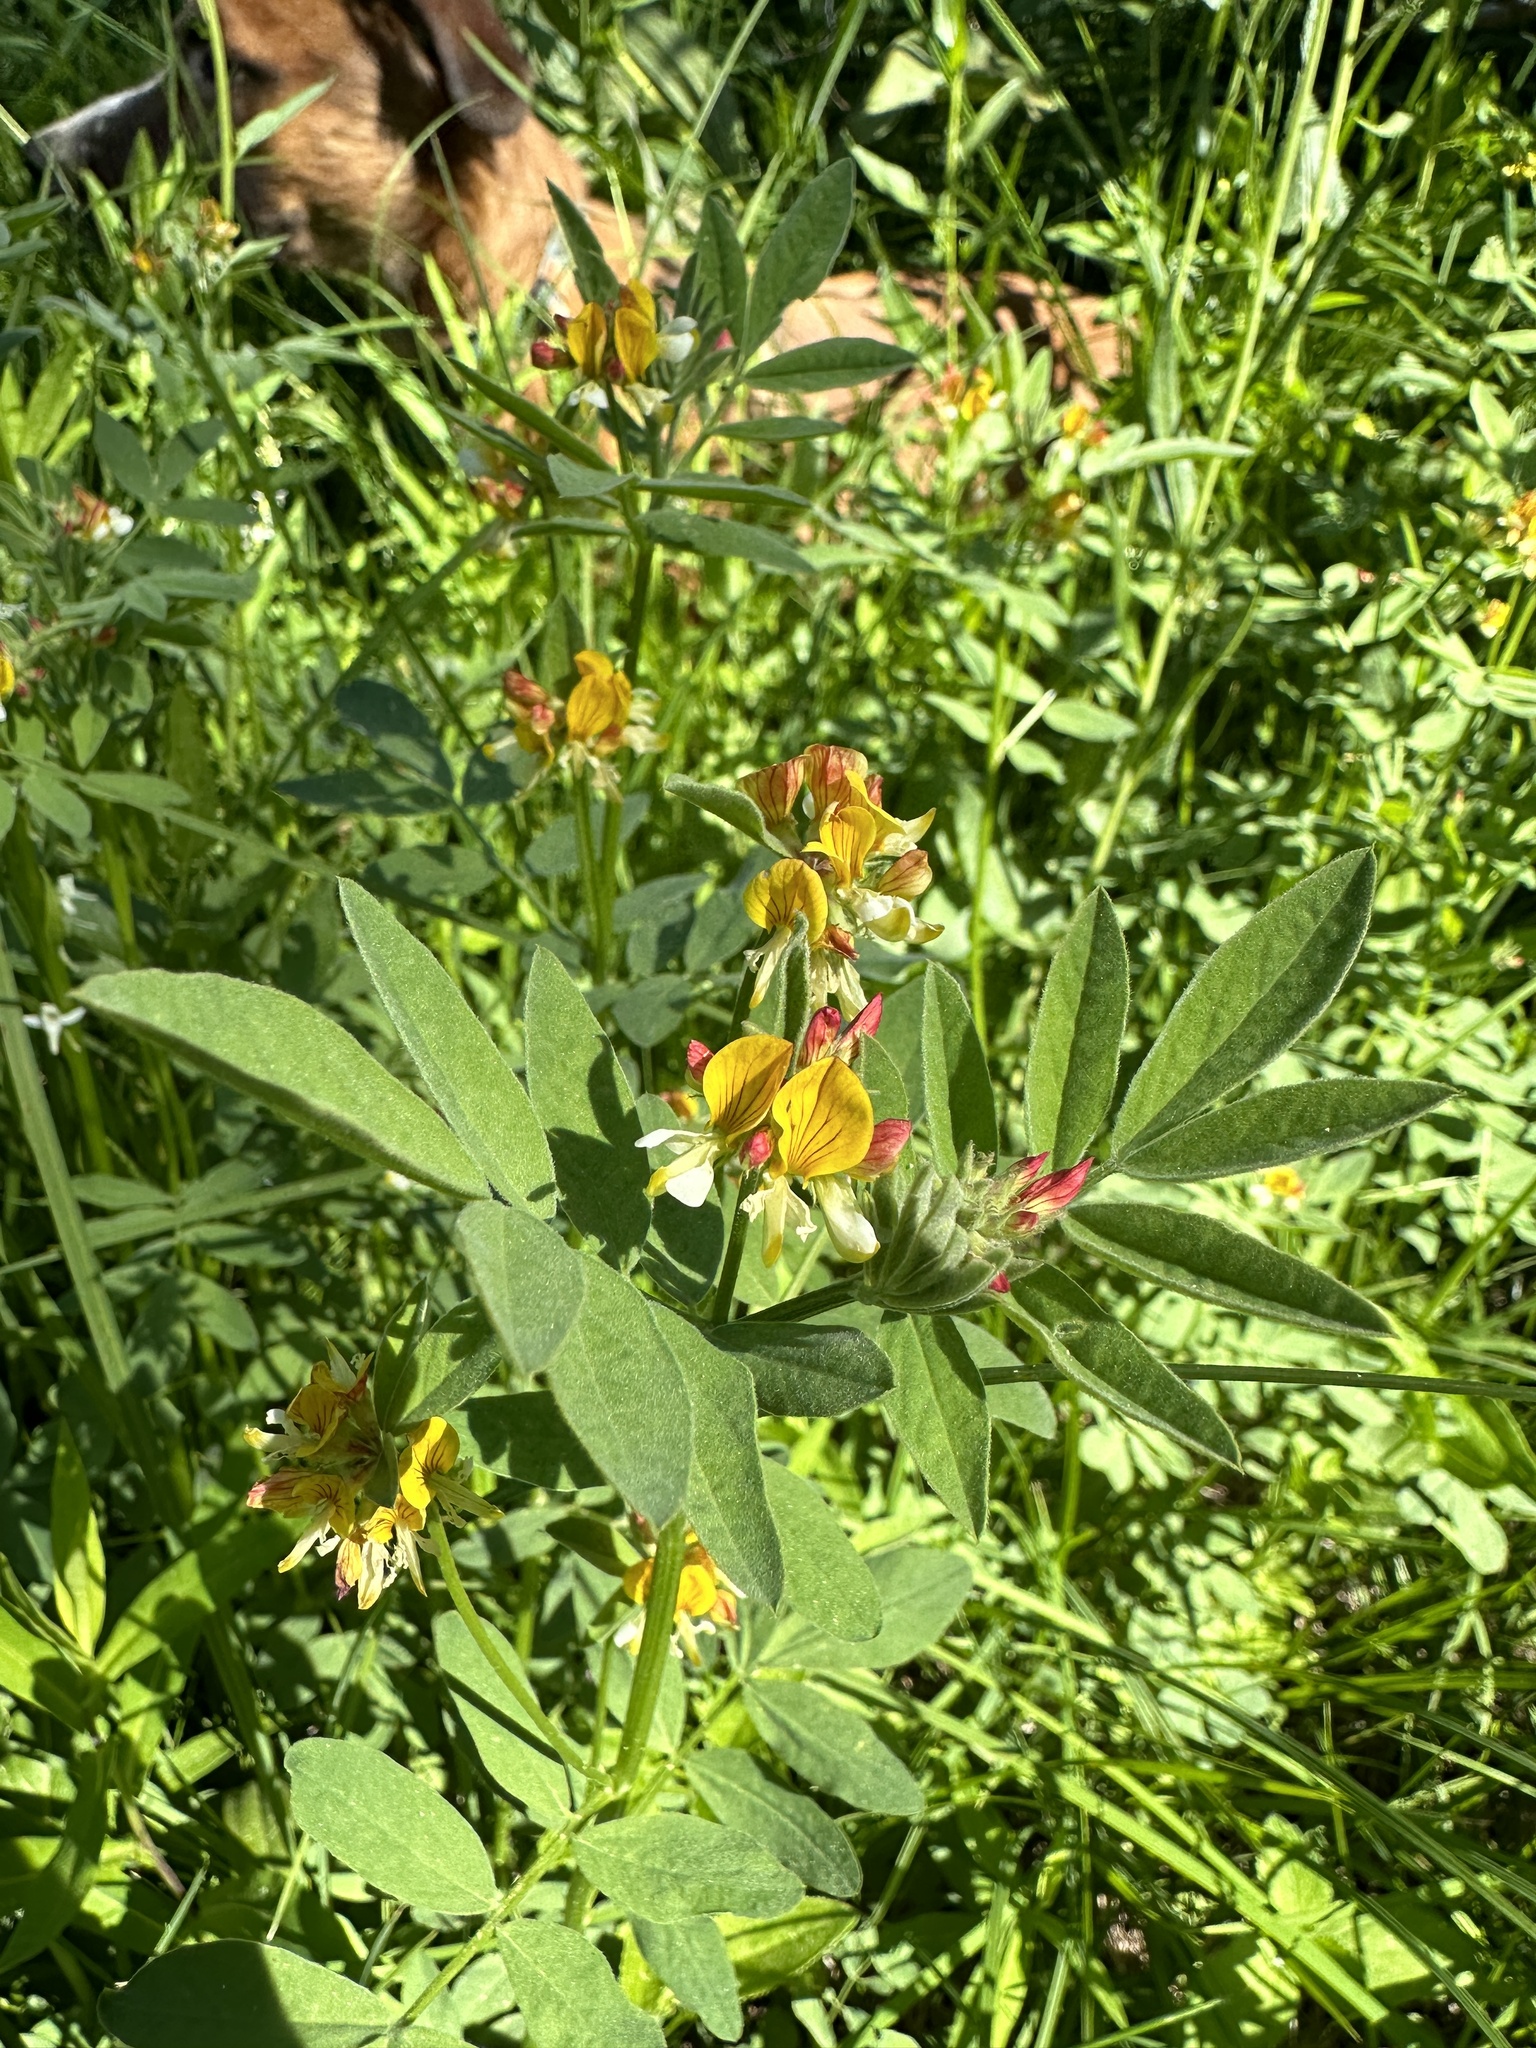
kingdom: Plantae
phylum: Tracheophyta
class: Magnoliopsida
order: Fabales
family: Fabaceae
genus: Hosackia
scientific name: Hosackia oblongifolia
